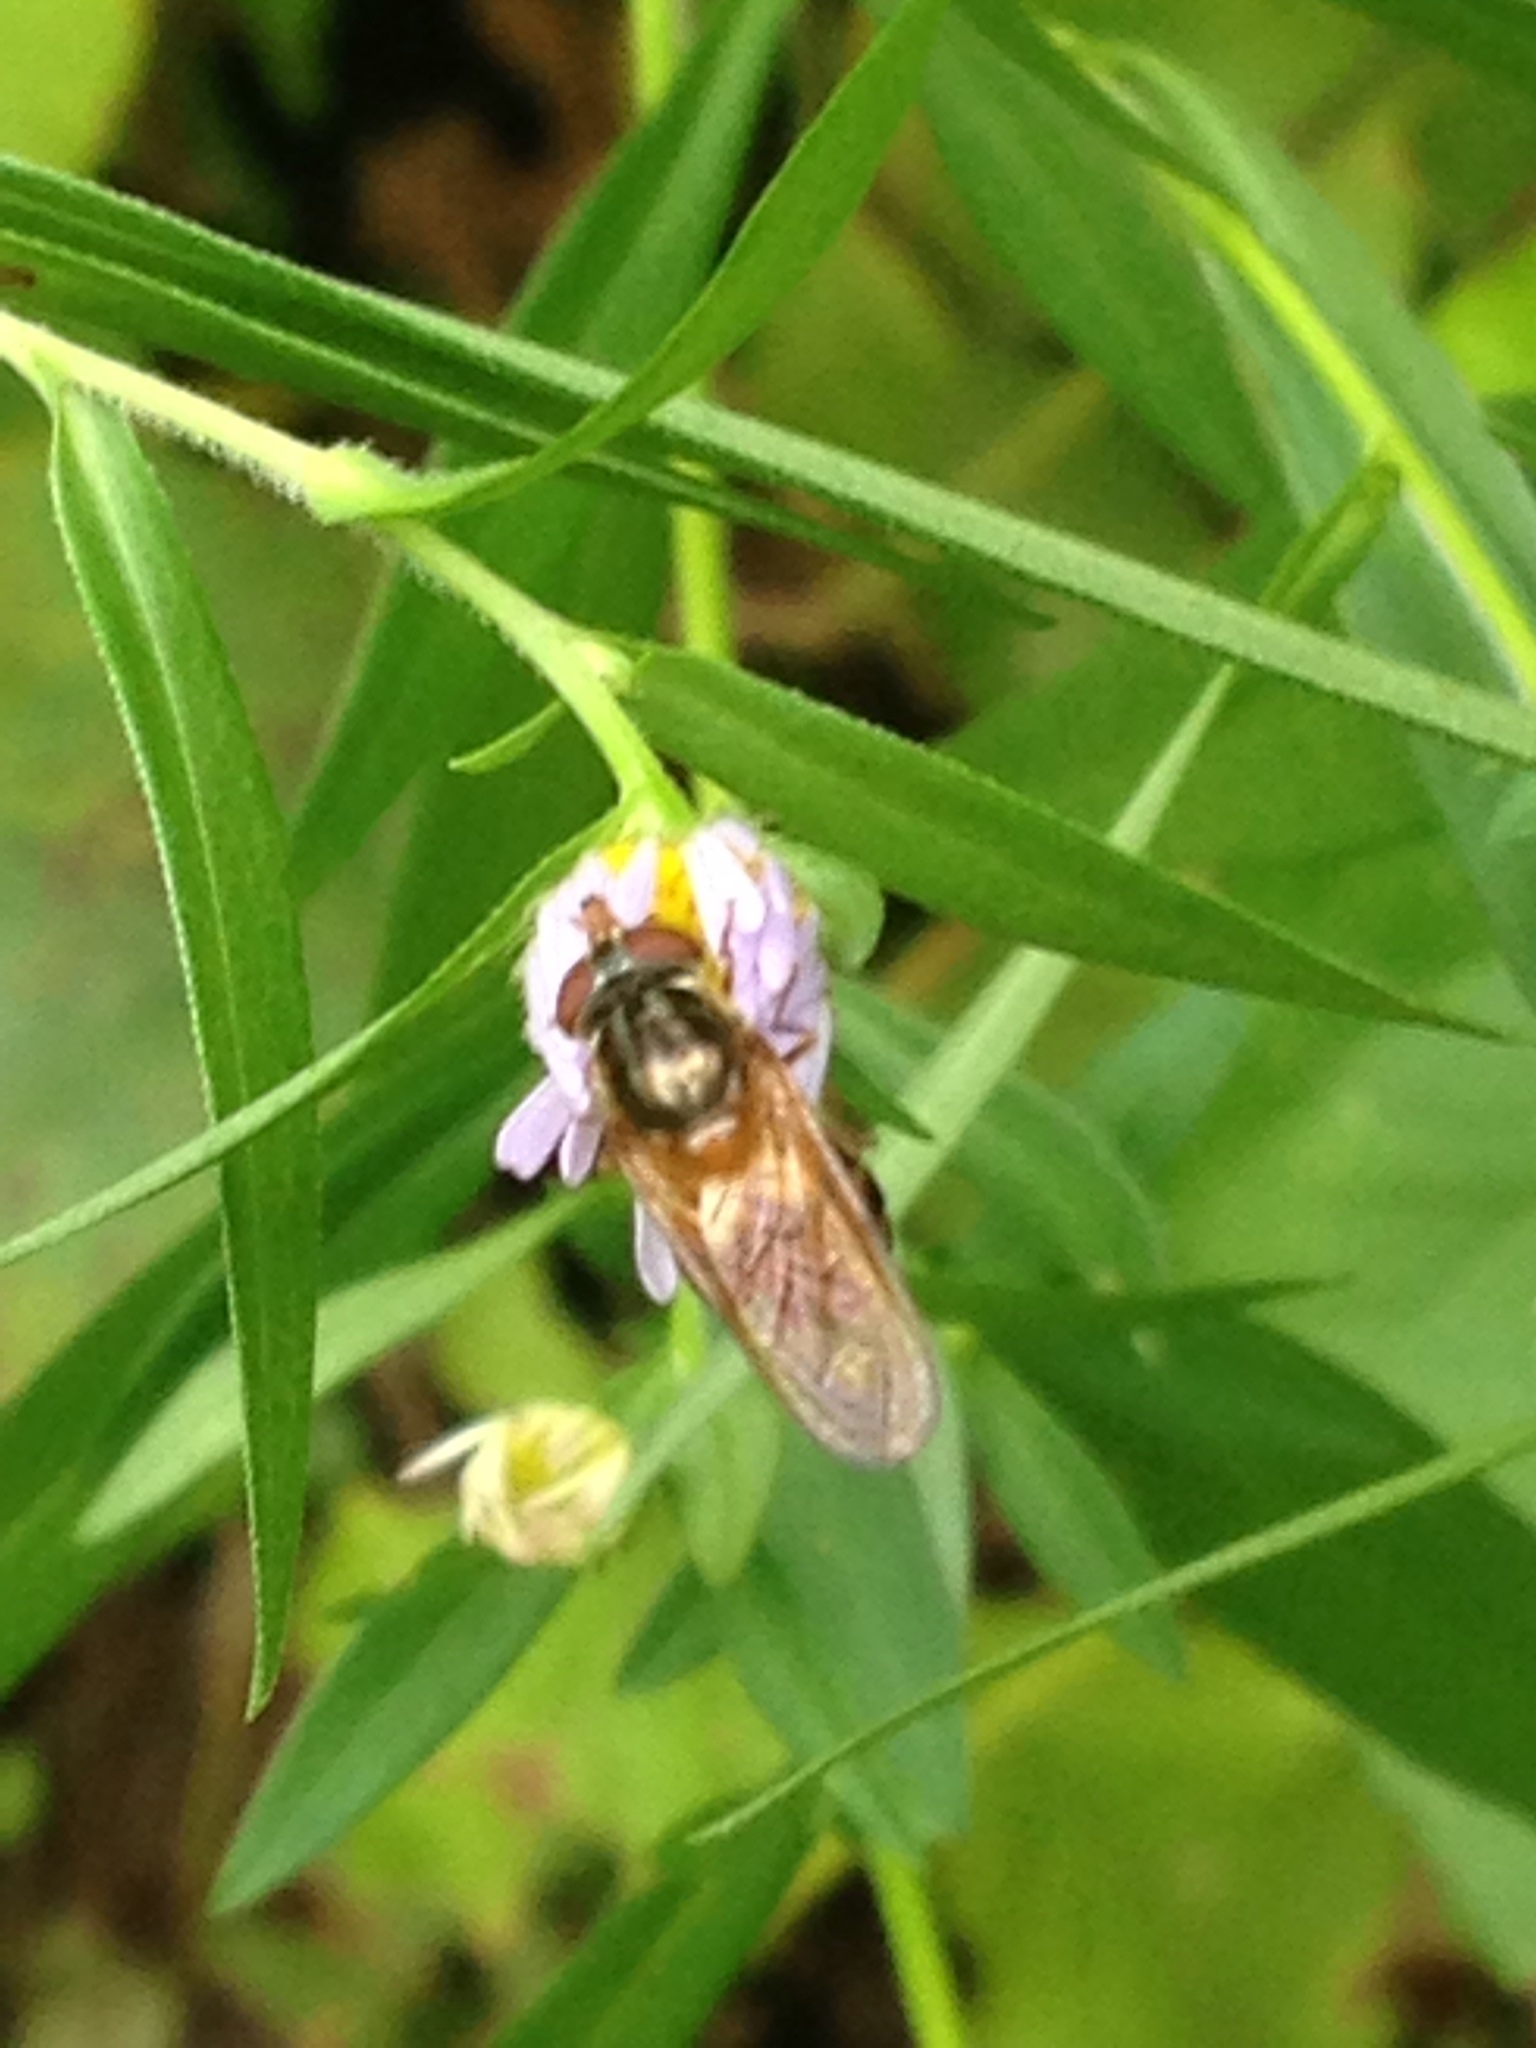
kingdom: Animalia
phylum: Arthropoda
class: Insecta
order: Diptera
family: Syrphidae
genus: Rhingia
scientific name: Rhingia nasica
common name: American snout fly
